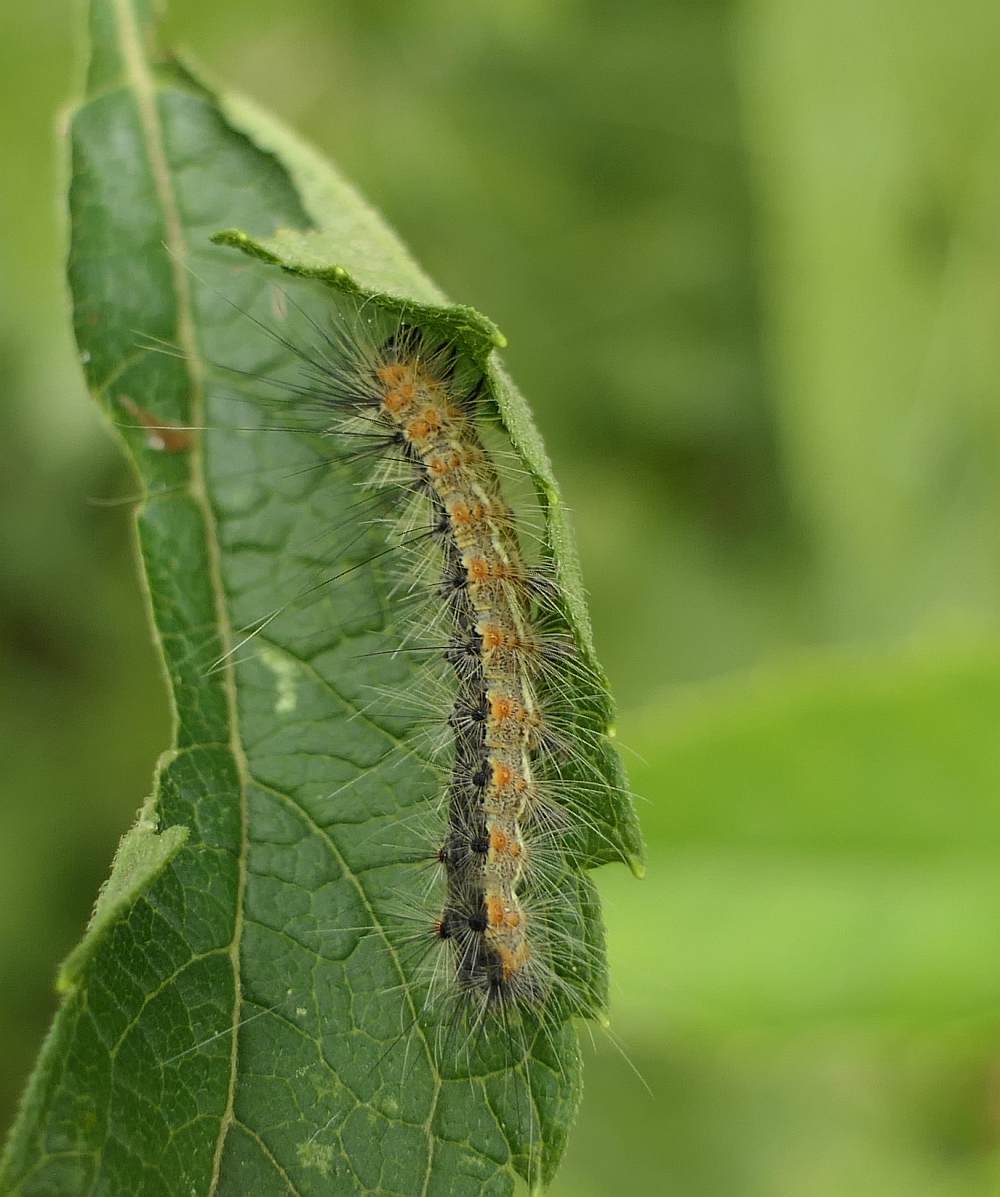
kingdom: Animalia
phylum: Arthropoda
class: Insecta
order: Lepidoptera
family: Erebidae
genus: Hyphantria
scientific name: Hyphantria cunea
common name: American white moth
